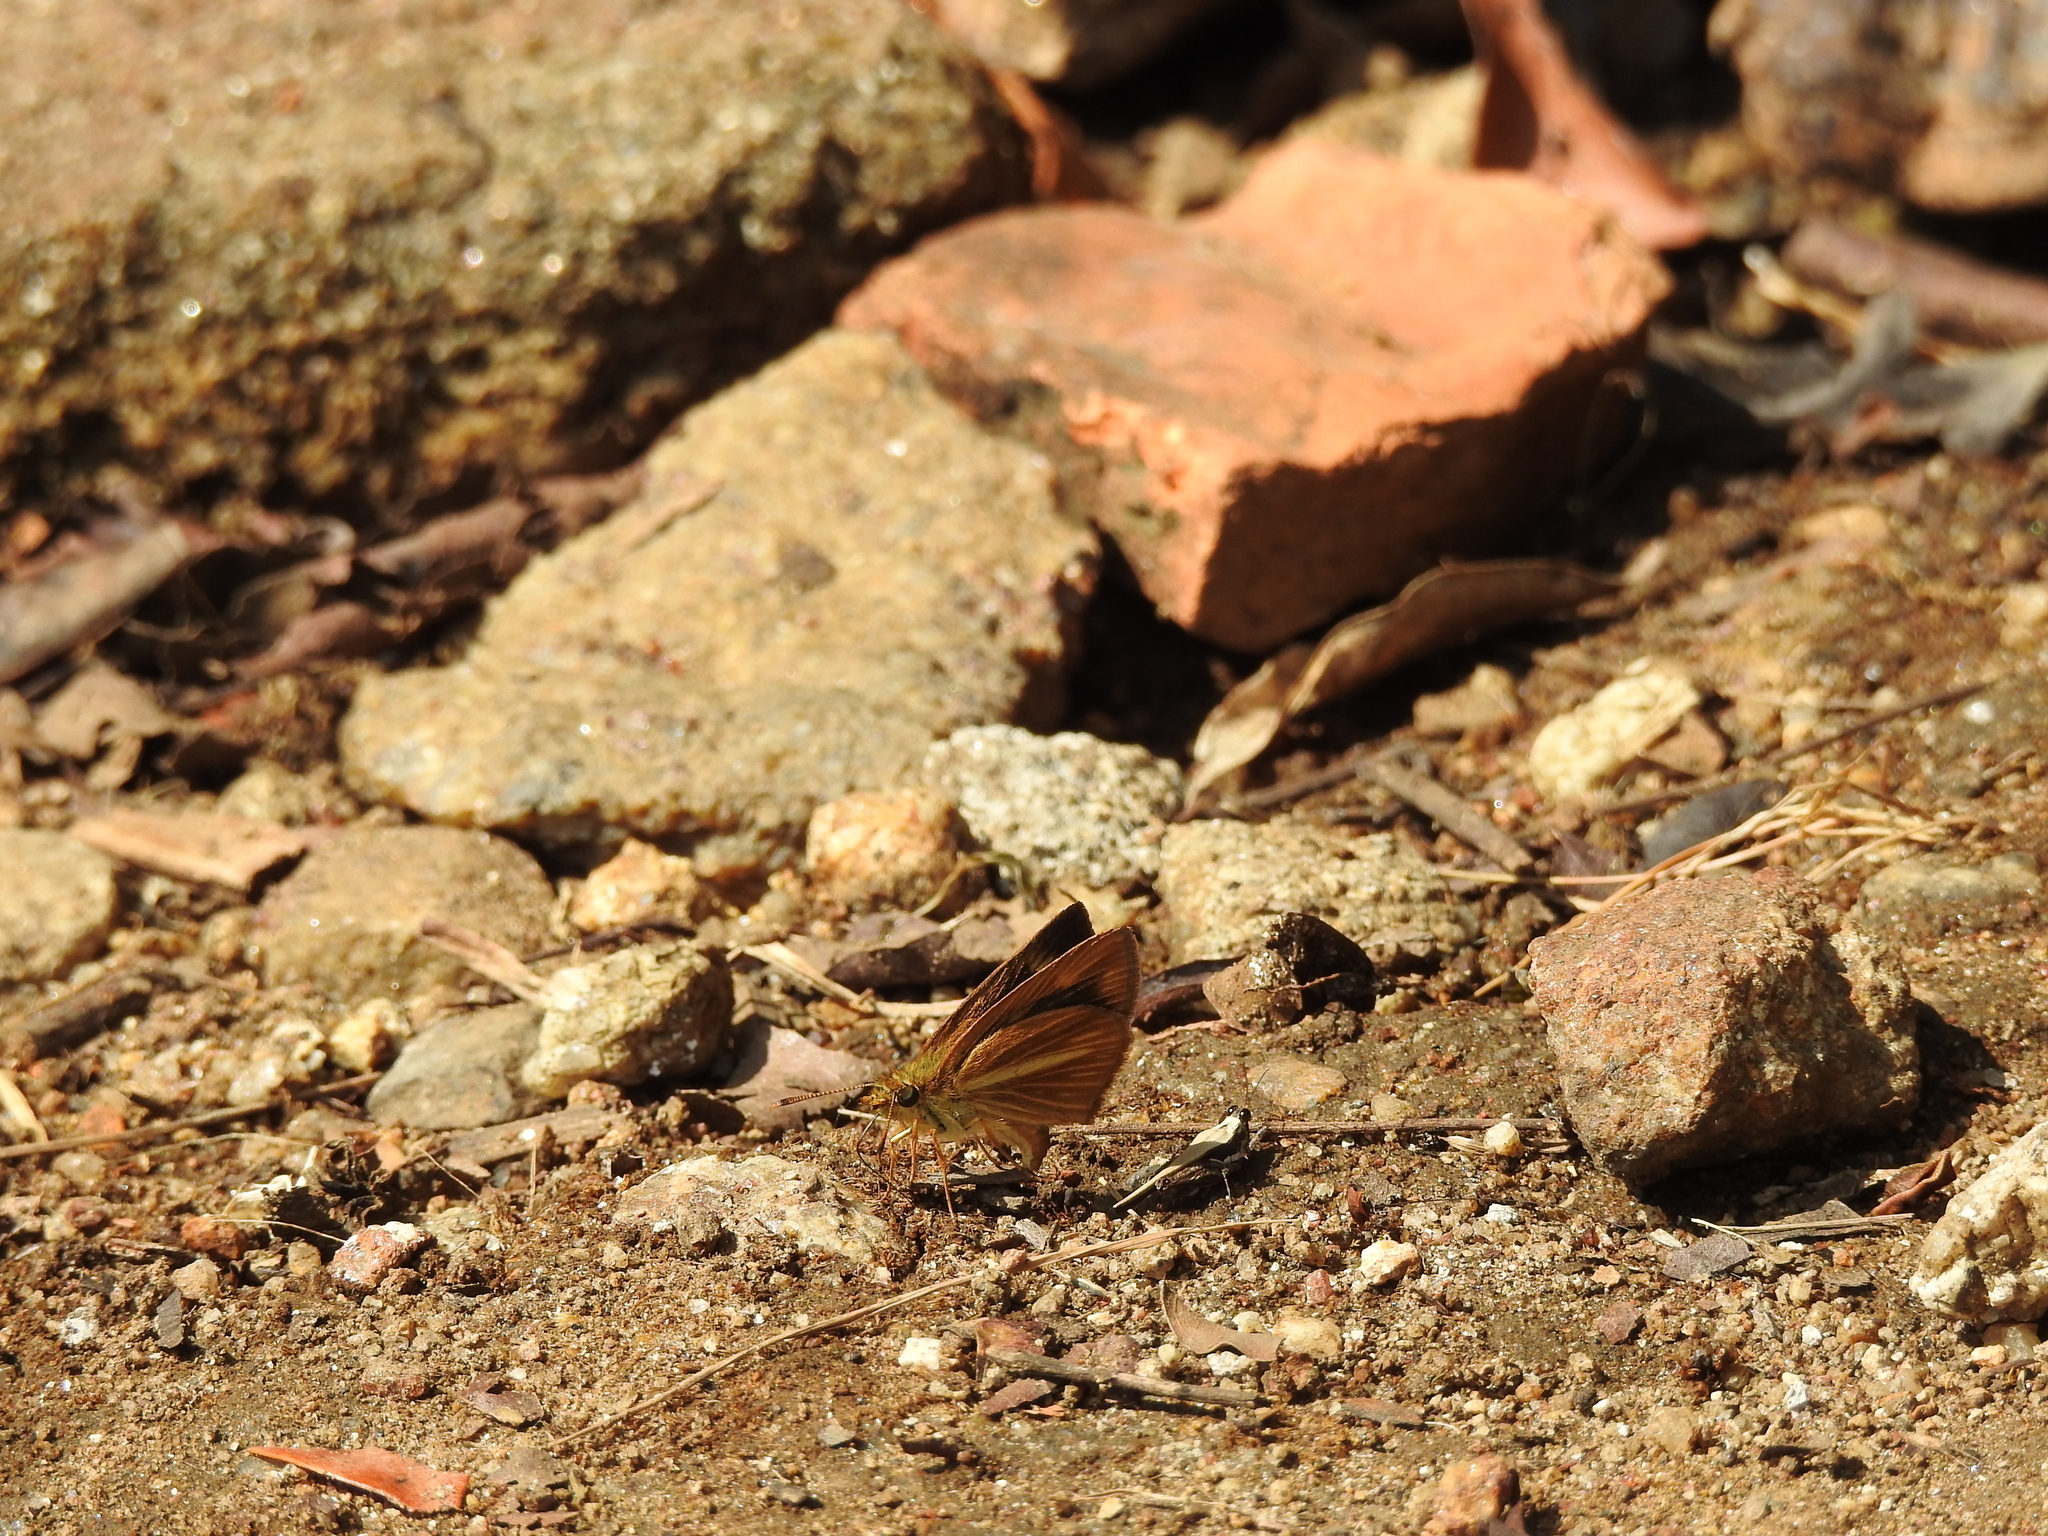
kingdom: Animalia
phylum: Arthropoda
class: Insecta
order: Lepidoptera
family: Hesperiidae
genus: Baracus
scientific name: Baracus vittatus
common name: Hedge-hopper
